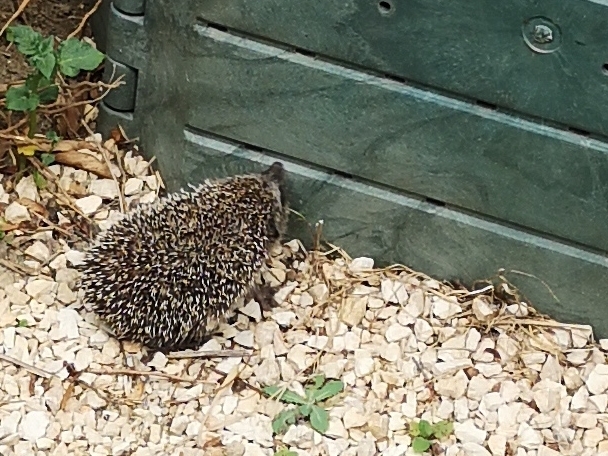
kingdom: Animalia
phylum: Chordata
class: Mammalia
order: Erinaceomorpha
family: Erinaceidae
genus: Erinaceus
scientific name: Erinaceus europaeus
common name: West european hedgehog
